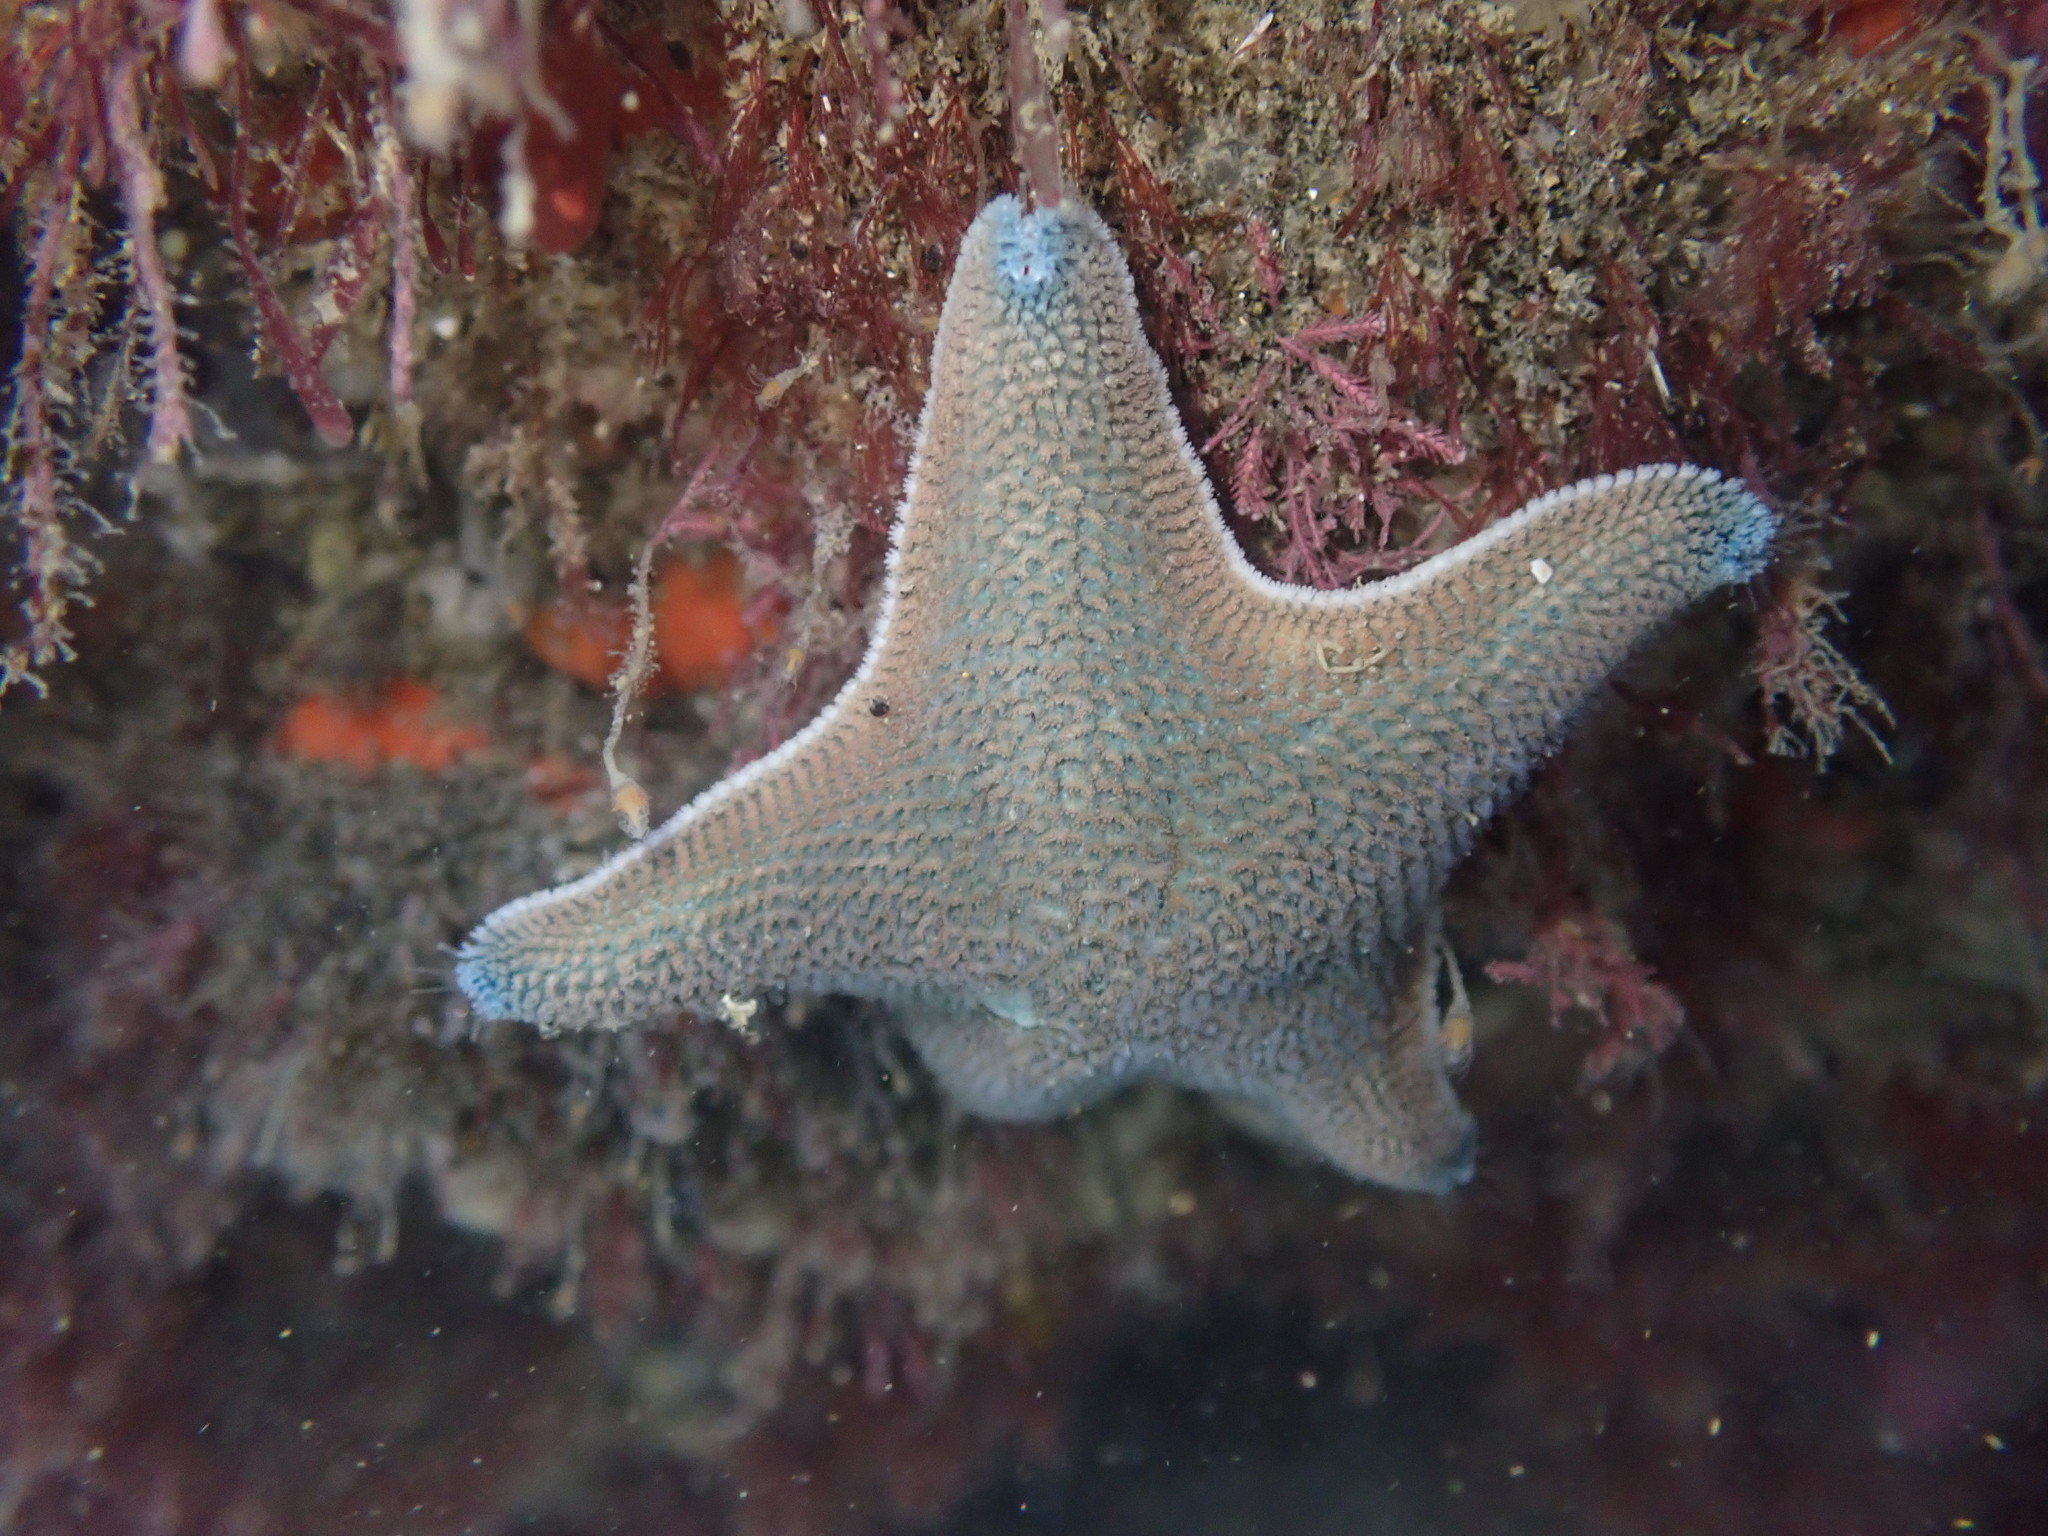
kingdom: Animalia
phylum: Echinodermata
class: Asteroidea
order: Valvatida
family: Asterinidae
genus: Patiriella
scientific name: Patiriella regularis
